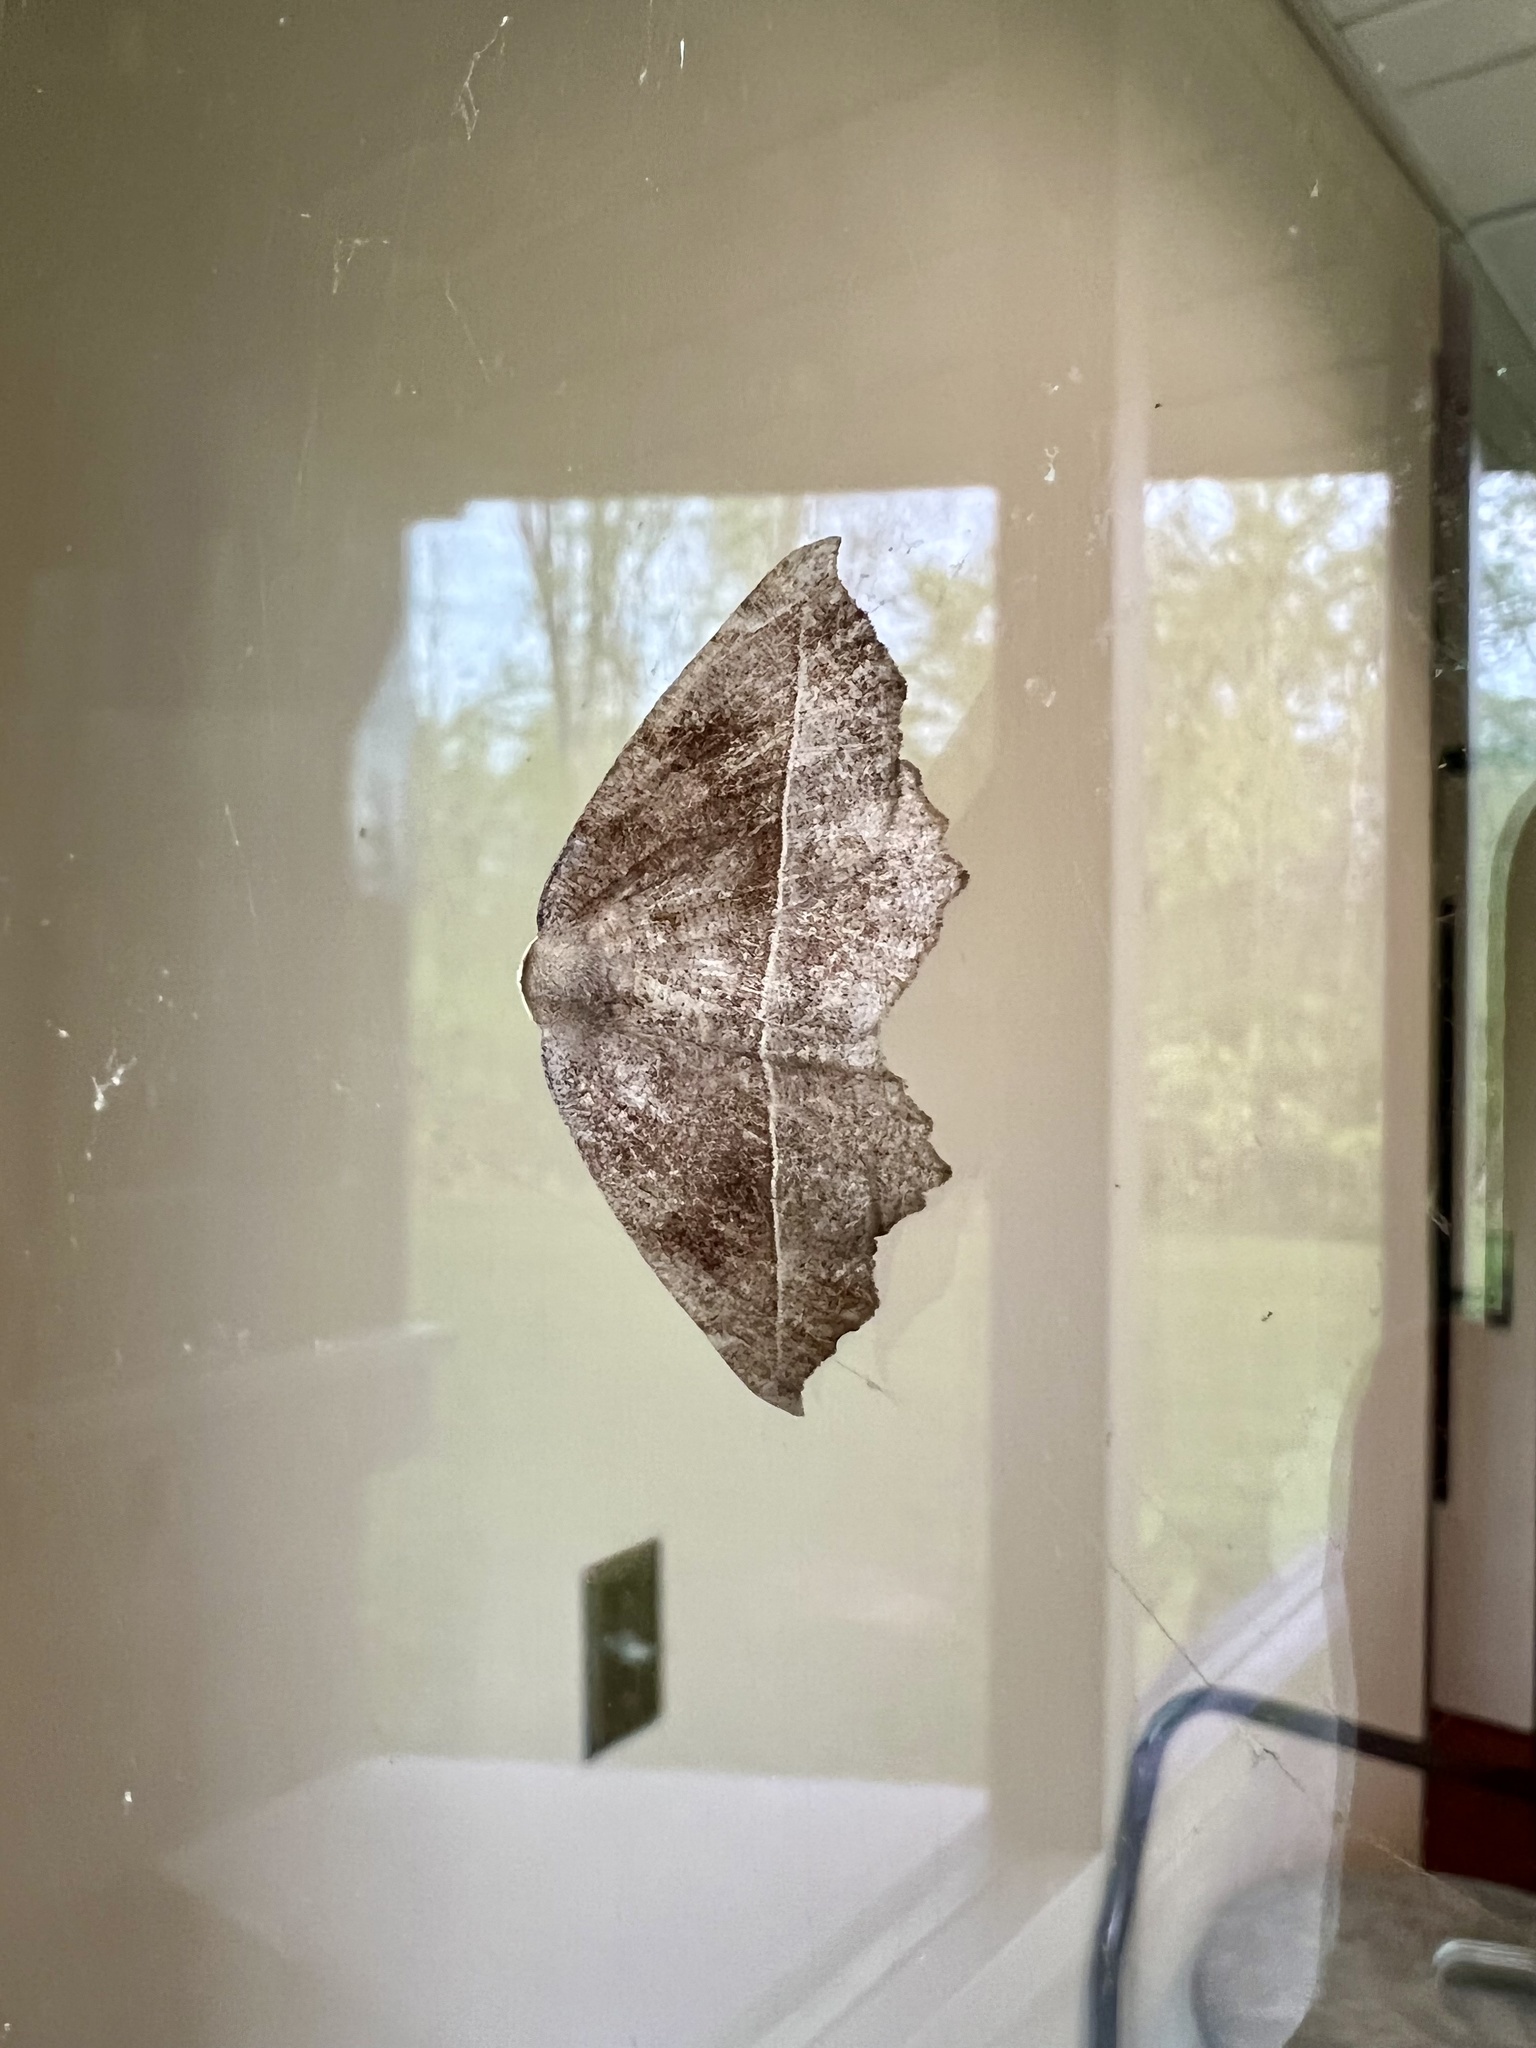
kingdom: Animalia
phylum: Arthropoda
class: Insecta
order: Lepidoptera
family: Geometridae
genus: Eutrapela
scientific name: Eutrapela clemataria
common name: Curved-toothed geometer
